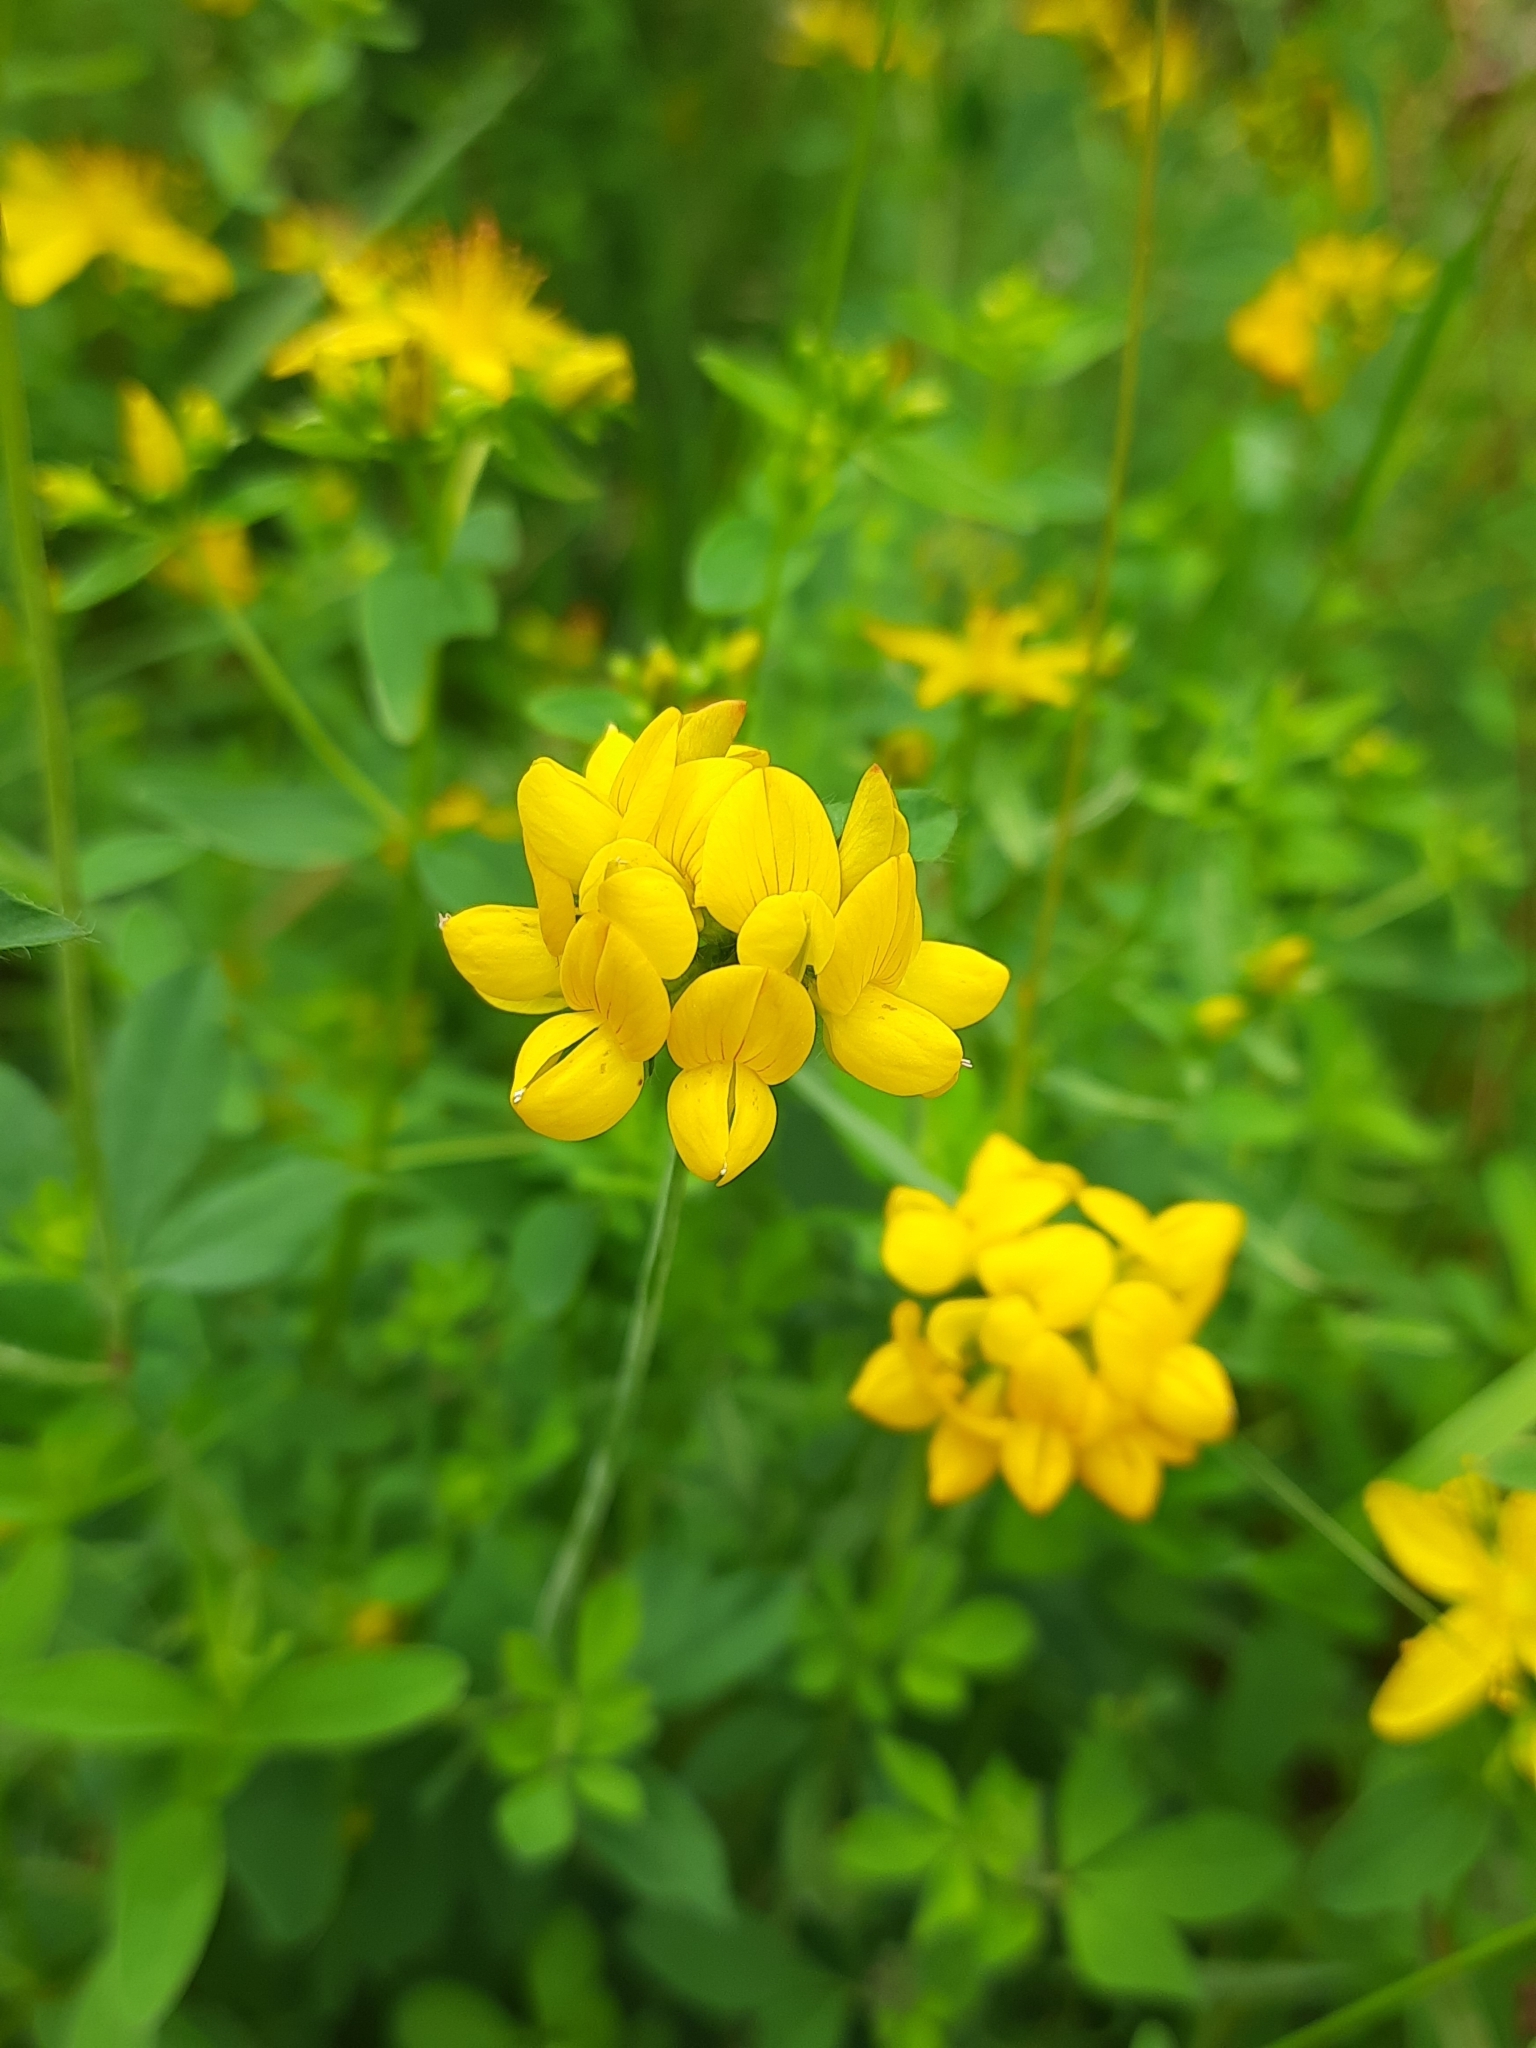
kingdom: Plantae
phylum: Tracheophyta
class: Magnoliopsida
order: Fabales
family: Fabaceae
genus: Lotus
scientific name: Lotus pedunculatus
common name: Greater birdsfoot-trefoil
